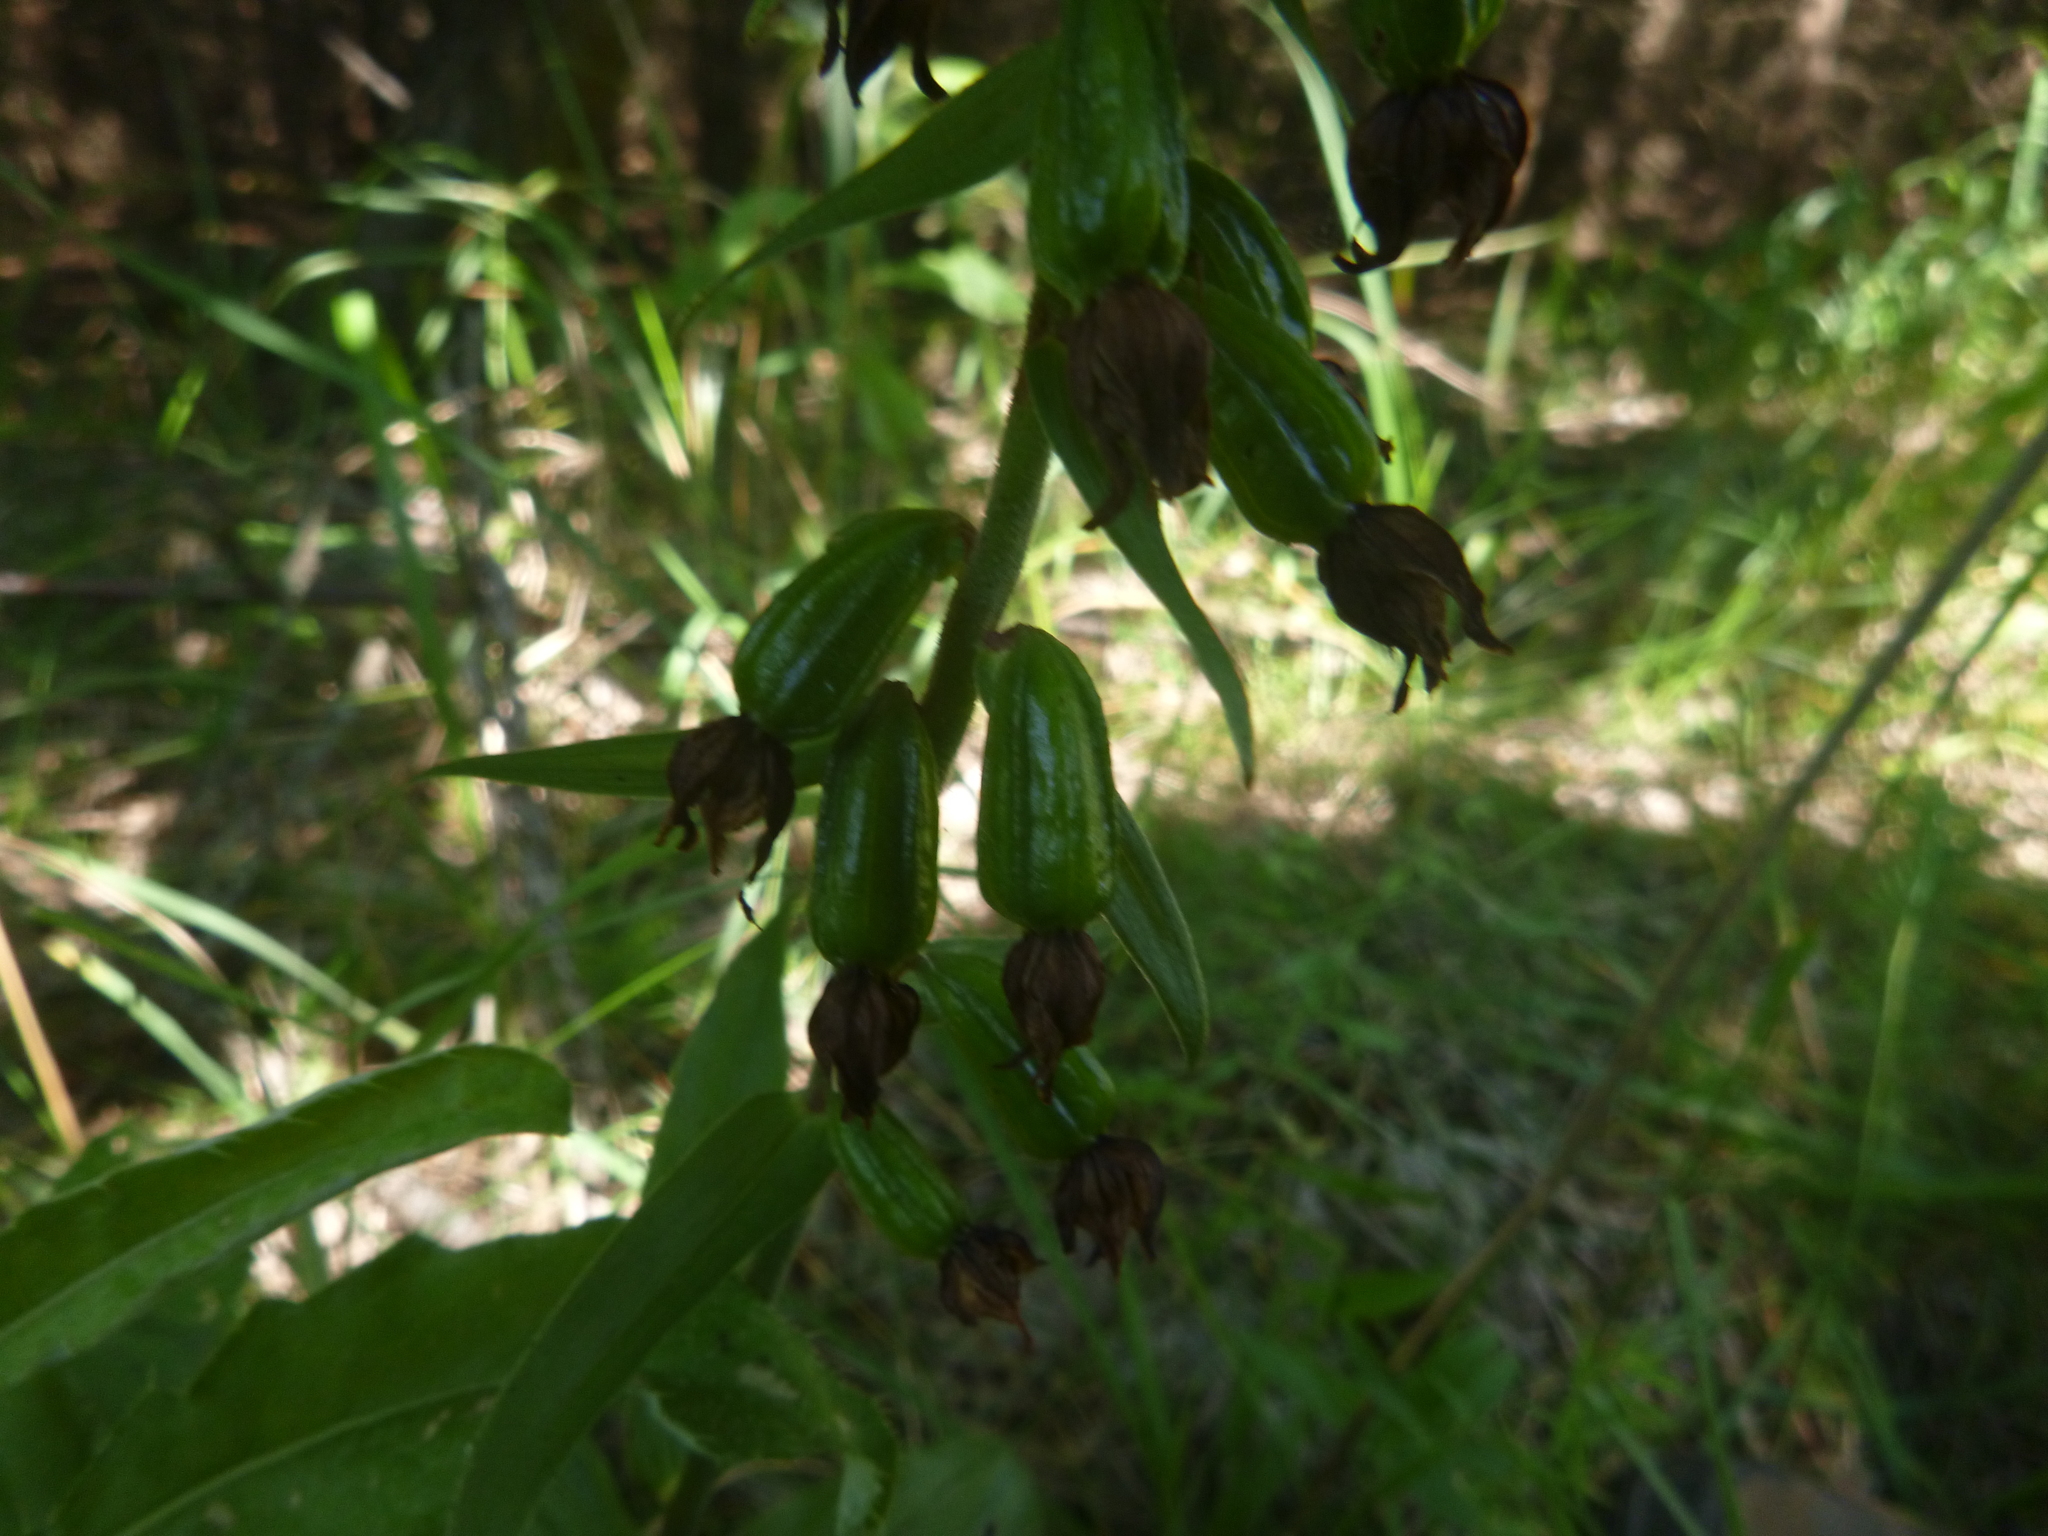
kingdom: Plantae
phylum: Tracheophyta
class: Liliopsida
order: Asparagales
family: Orchidaceae
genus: Epipactis
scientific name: Epipactis helleborine
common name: Broad-leaved helleborine
